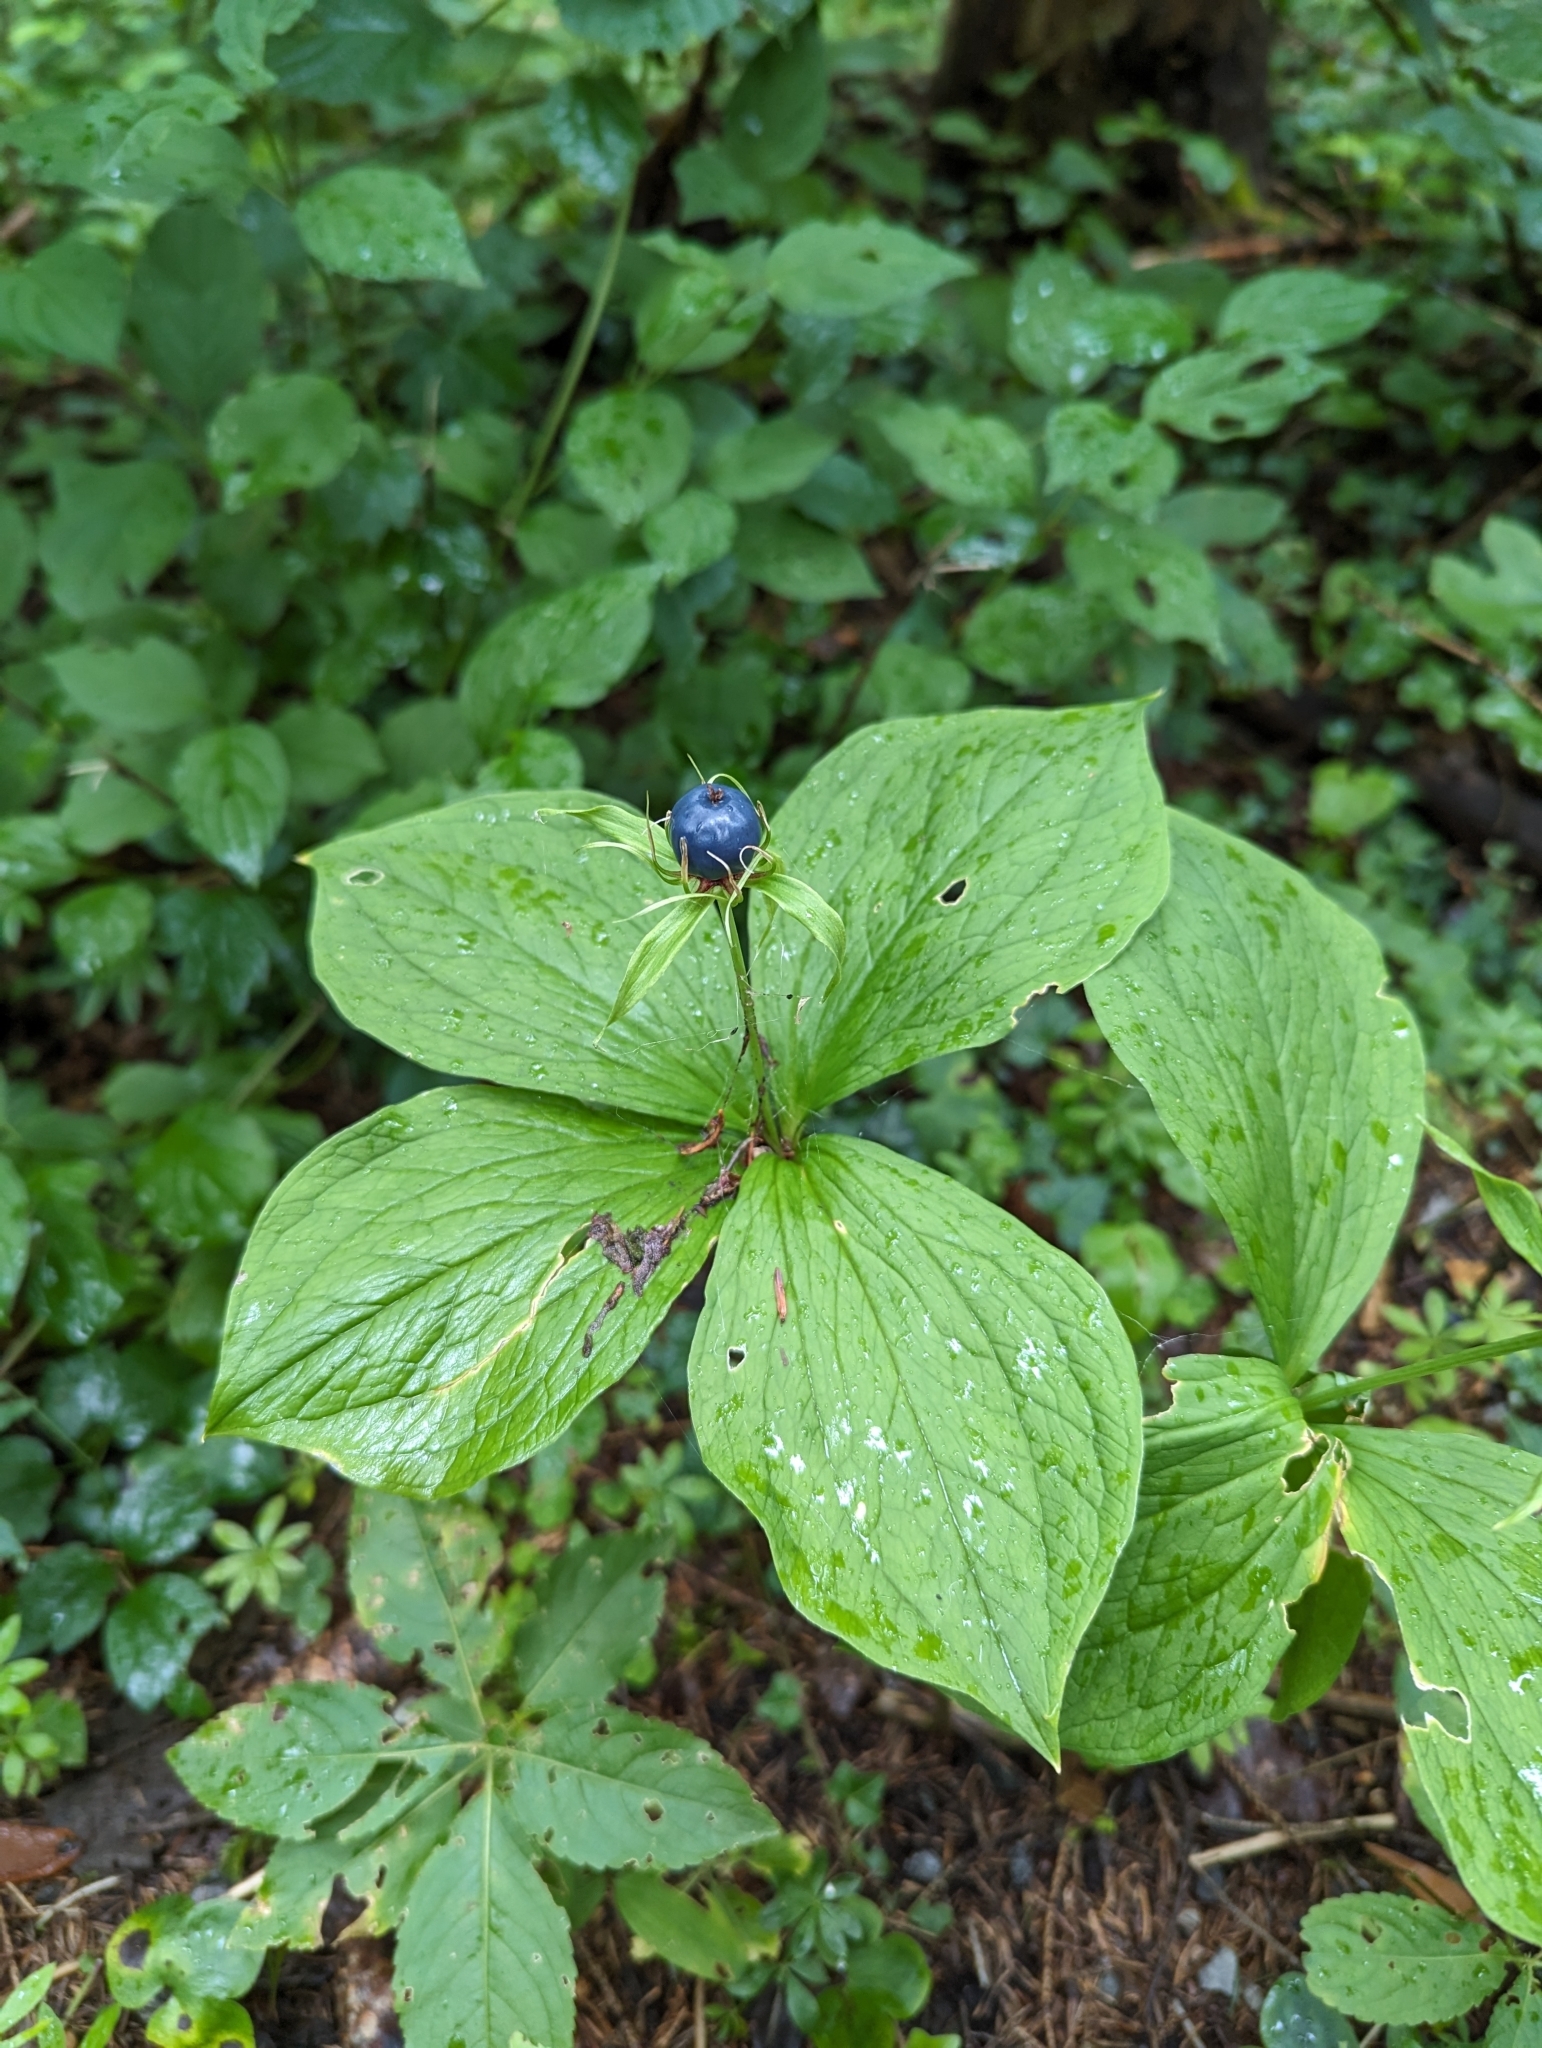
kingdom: Plantae
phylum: Tracheophyta
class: Liliopsida
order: Liliales
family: Melanthiaceae
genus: Paris
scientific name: Paris quadrifolia
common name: Herb-paris
